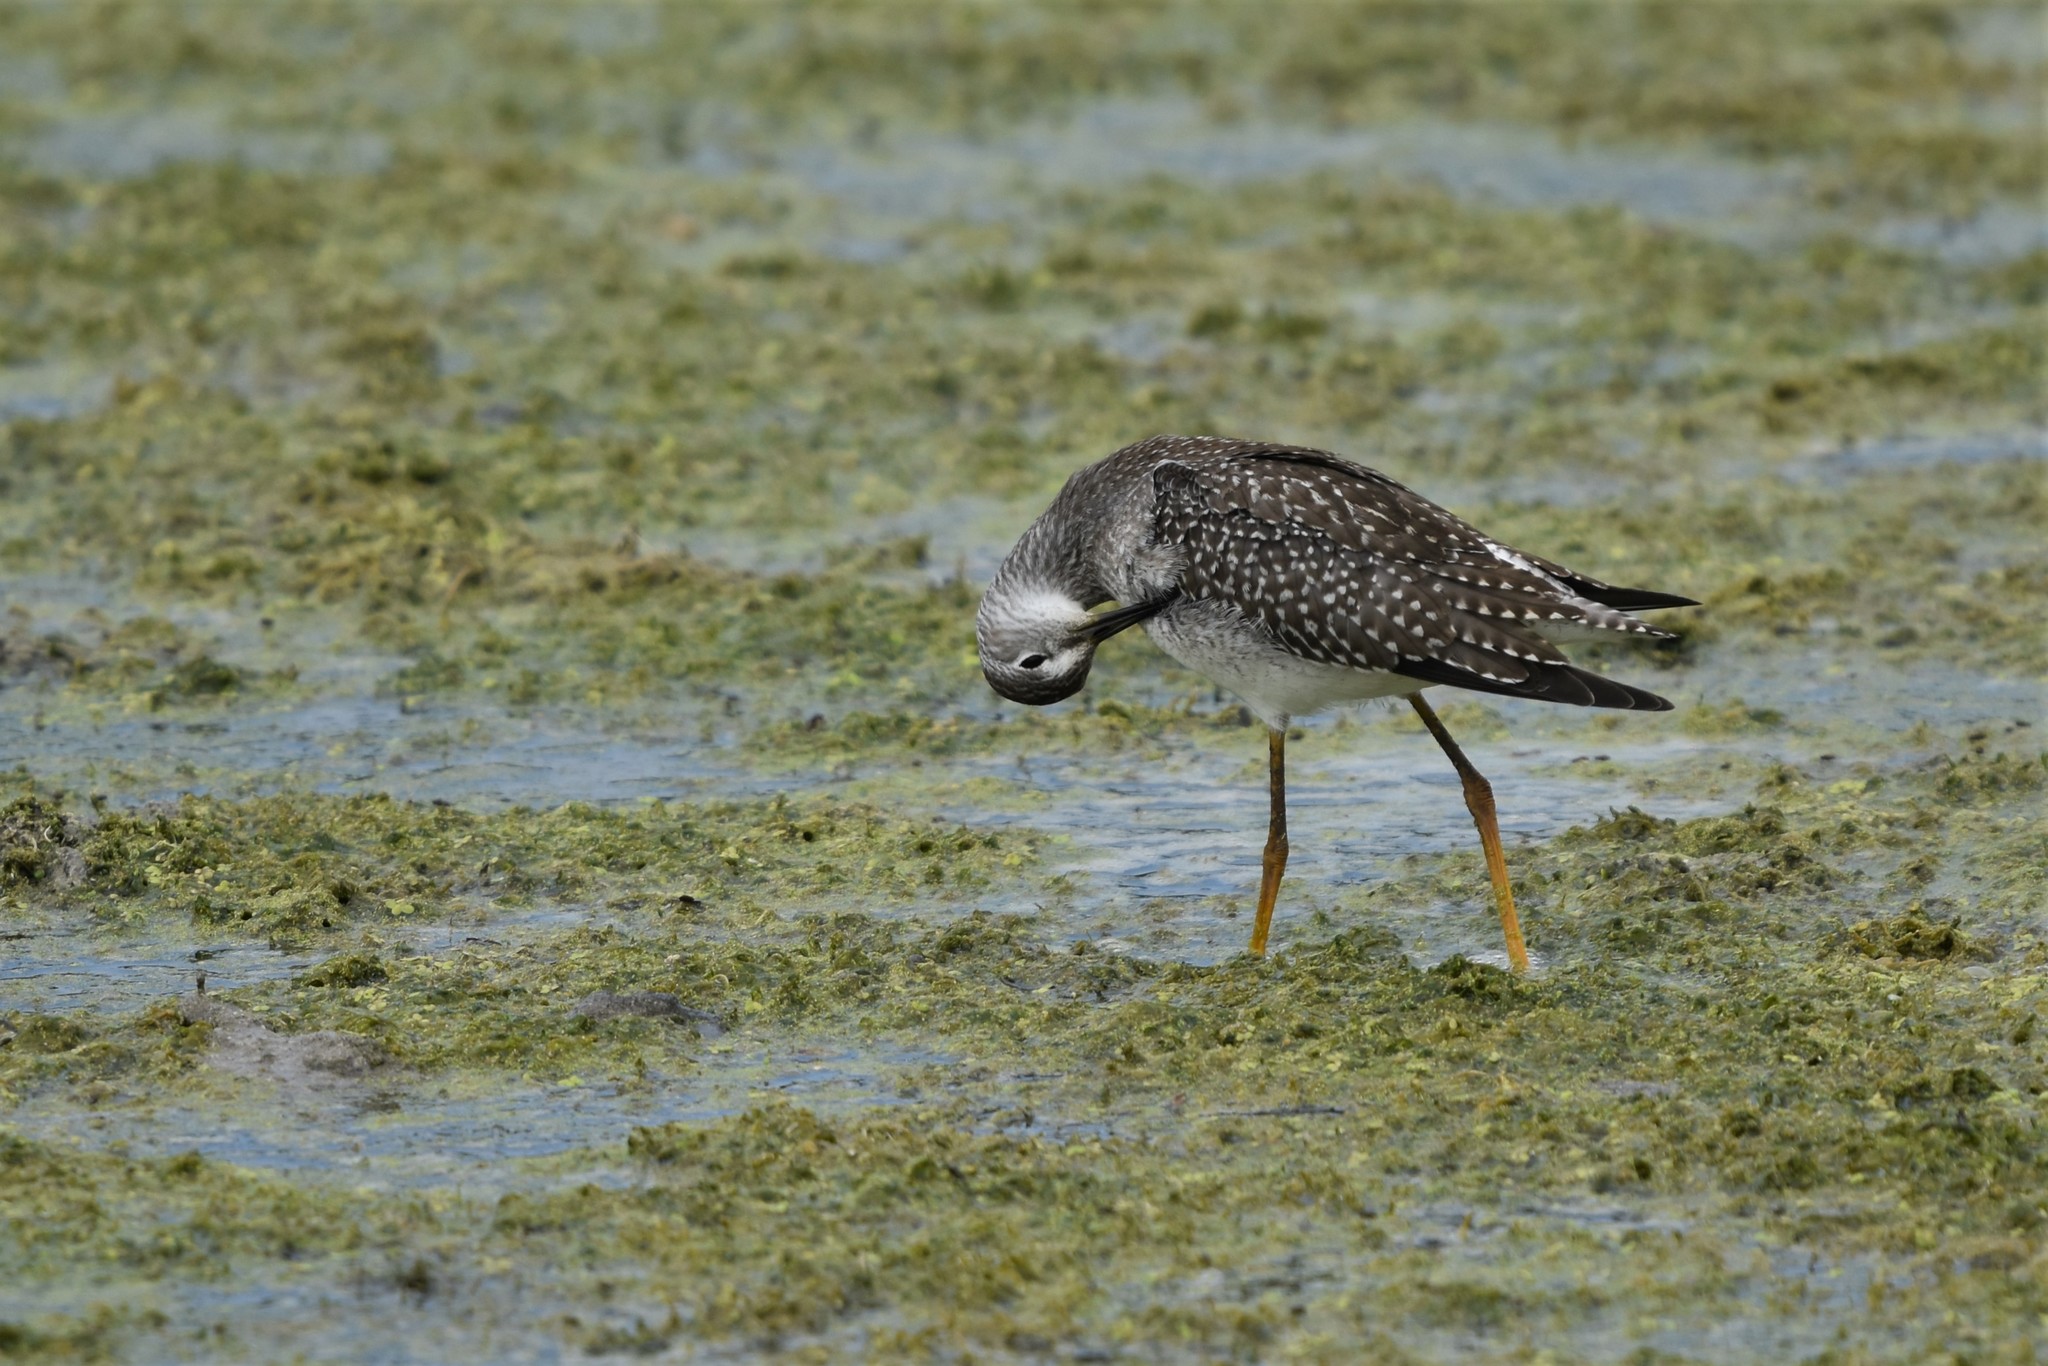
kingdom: Animalia
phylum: Chordata
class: Aves
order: Charadriiformes
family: Scolopacidae
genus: Tringa
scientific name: Tringa flavipes
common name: Lesser yellowlegs
